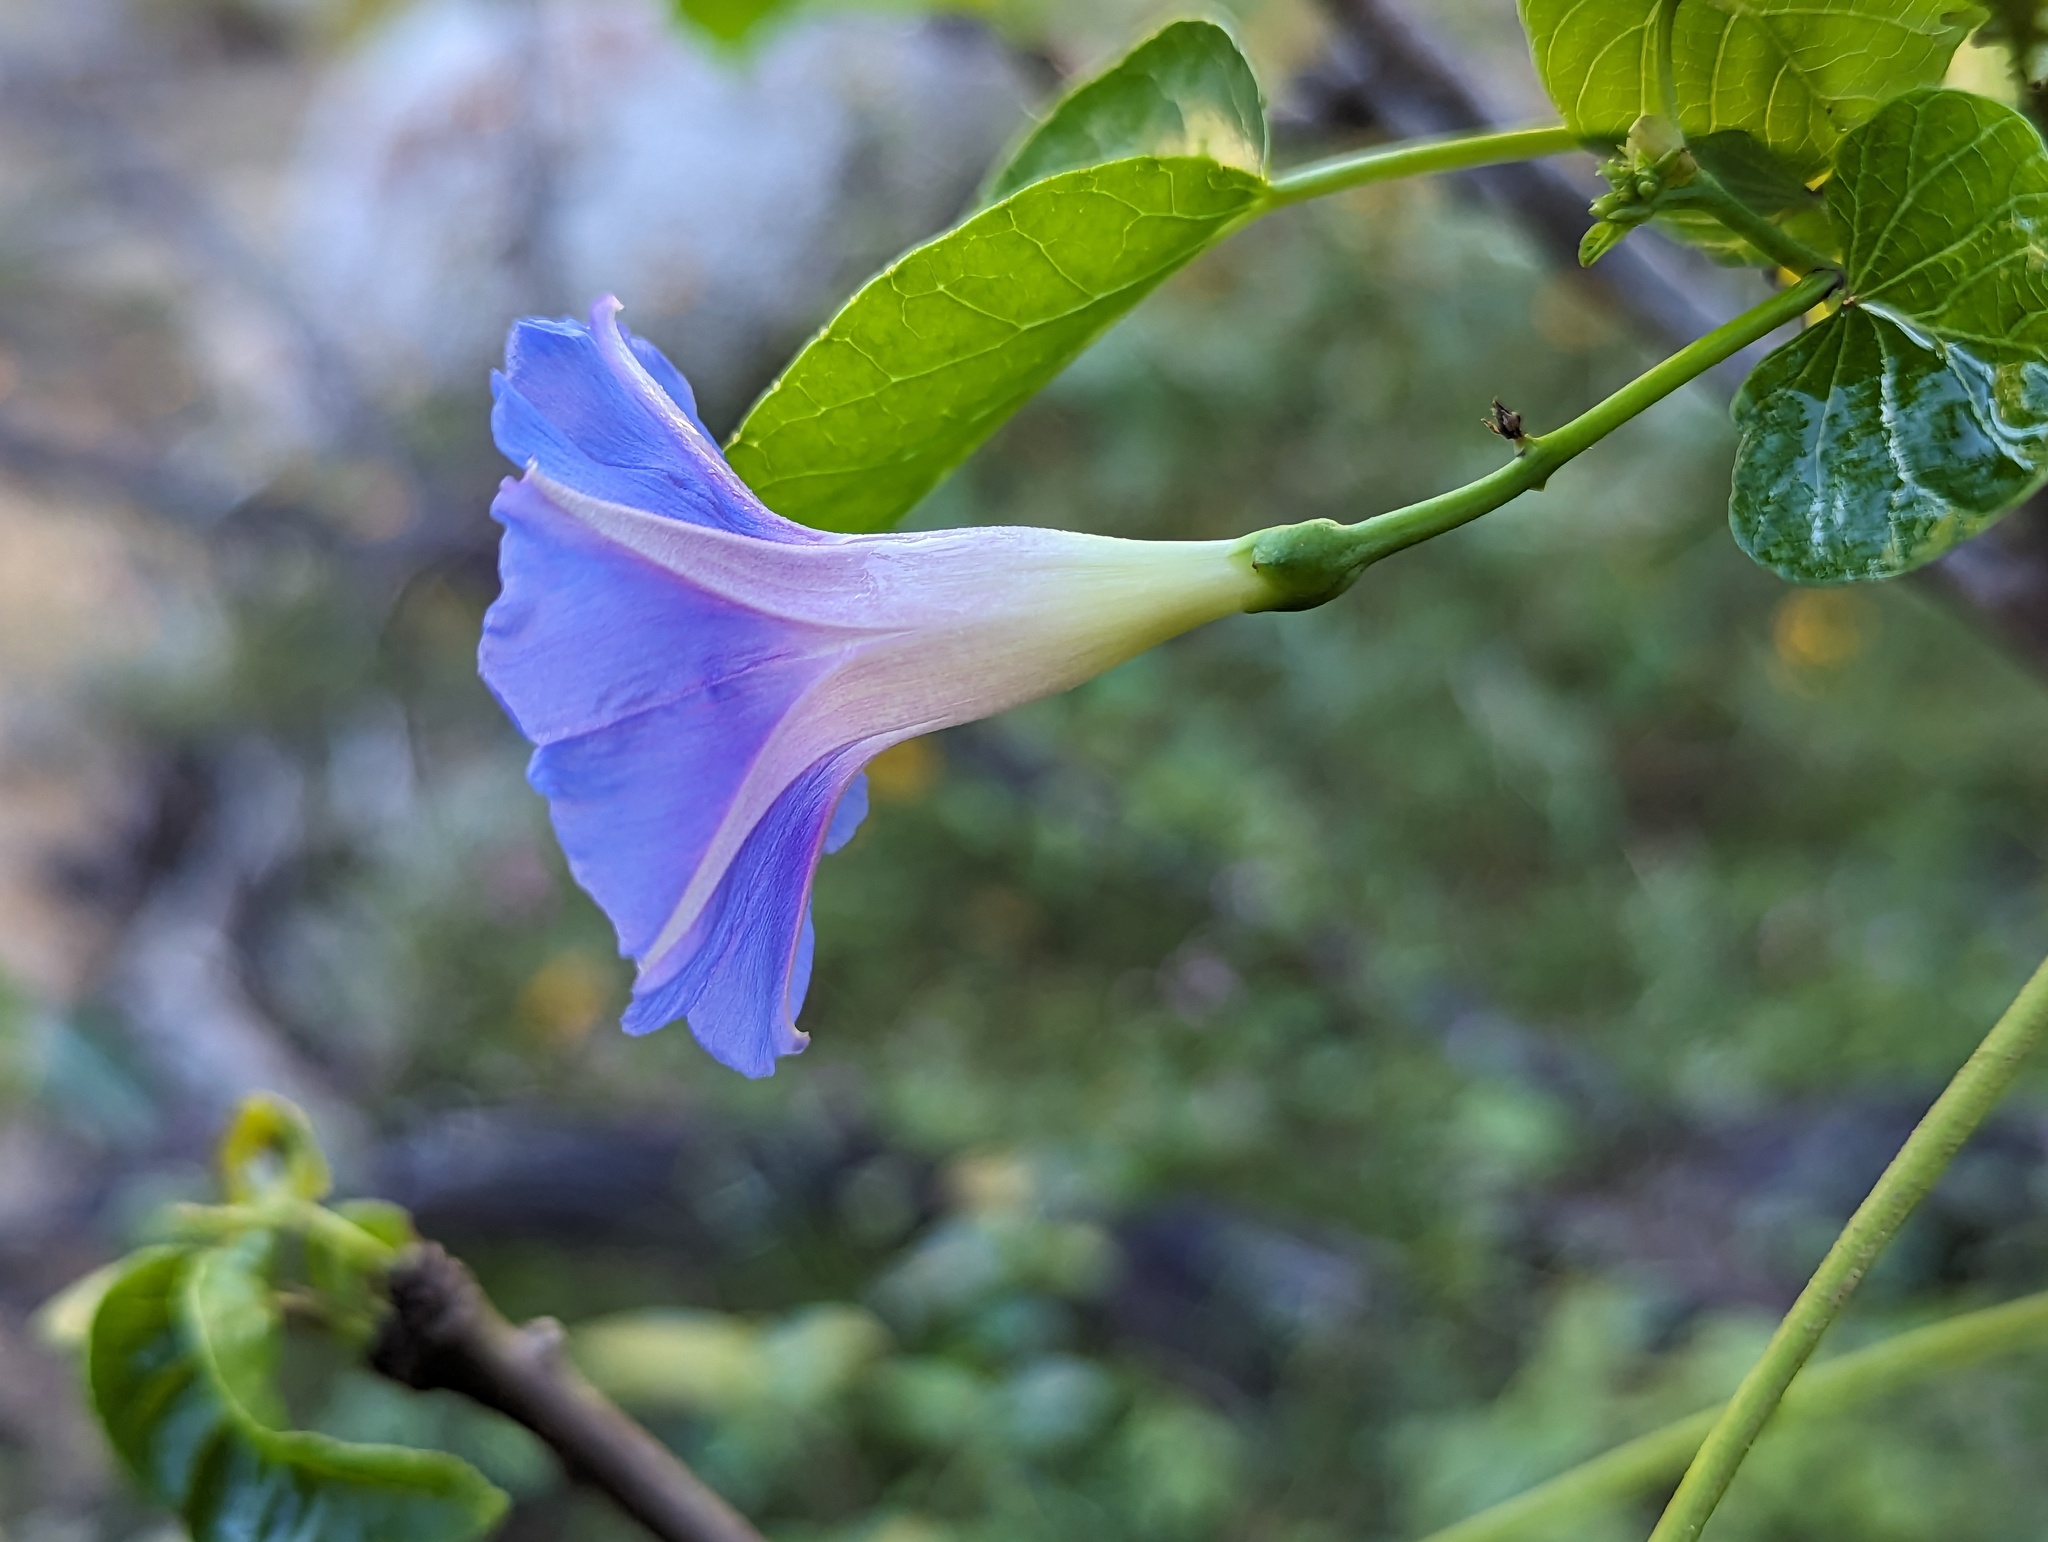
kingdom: Plantae
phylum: Tracheophyta
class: Magnoliopsida
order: Solanales
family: Convolvulaceae
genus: Ipomoea
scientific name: Ipomoea parasitica
